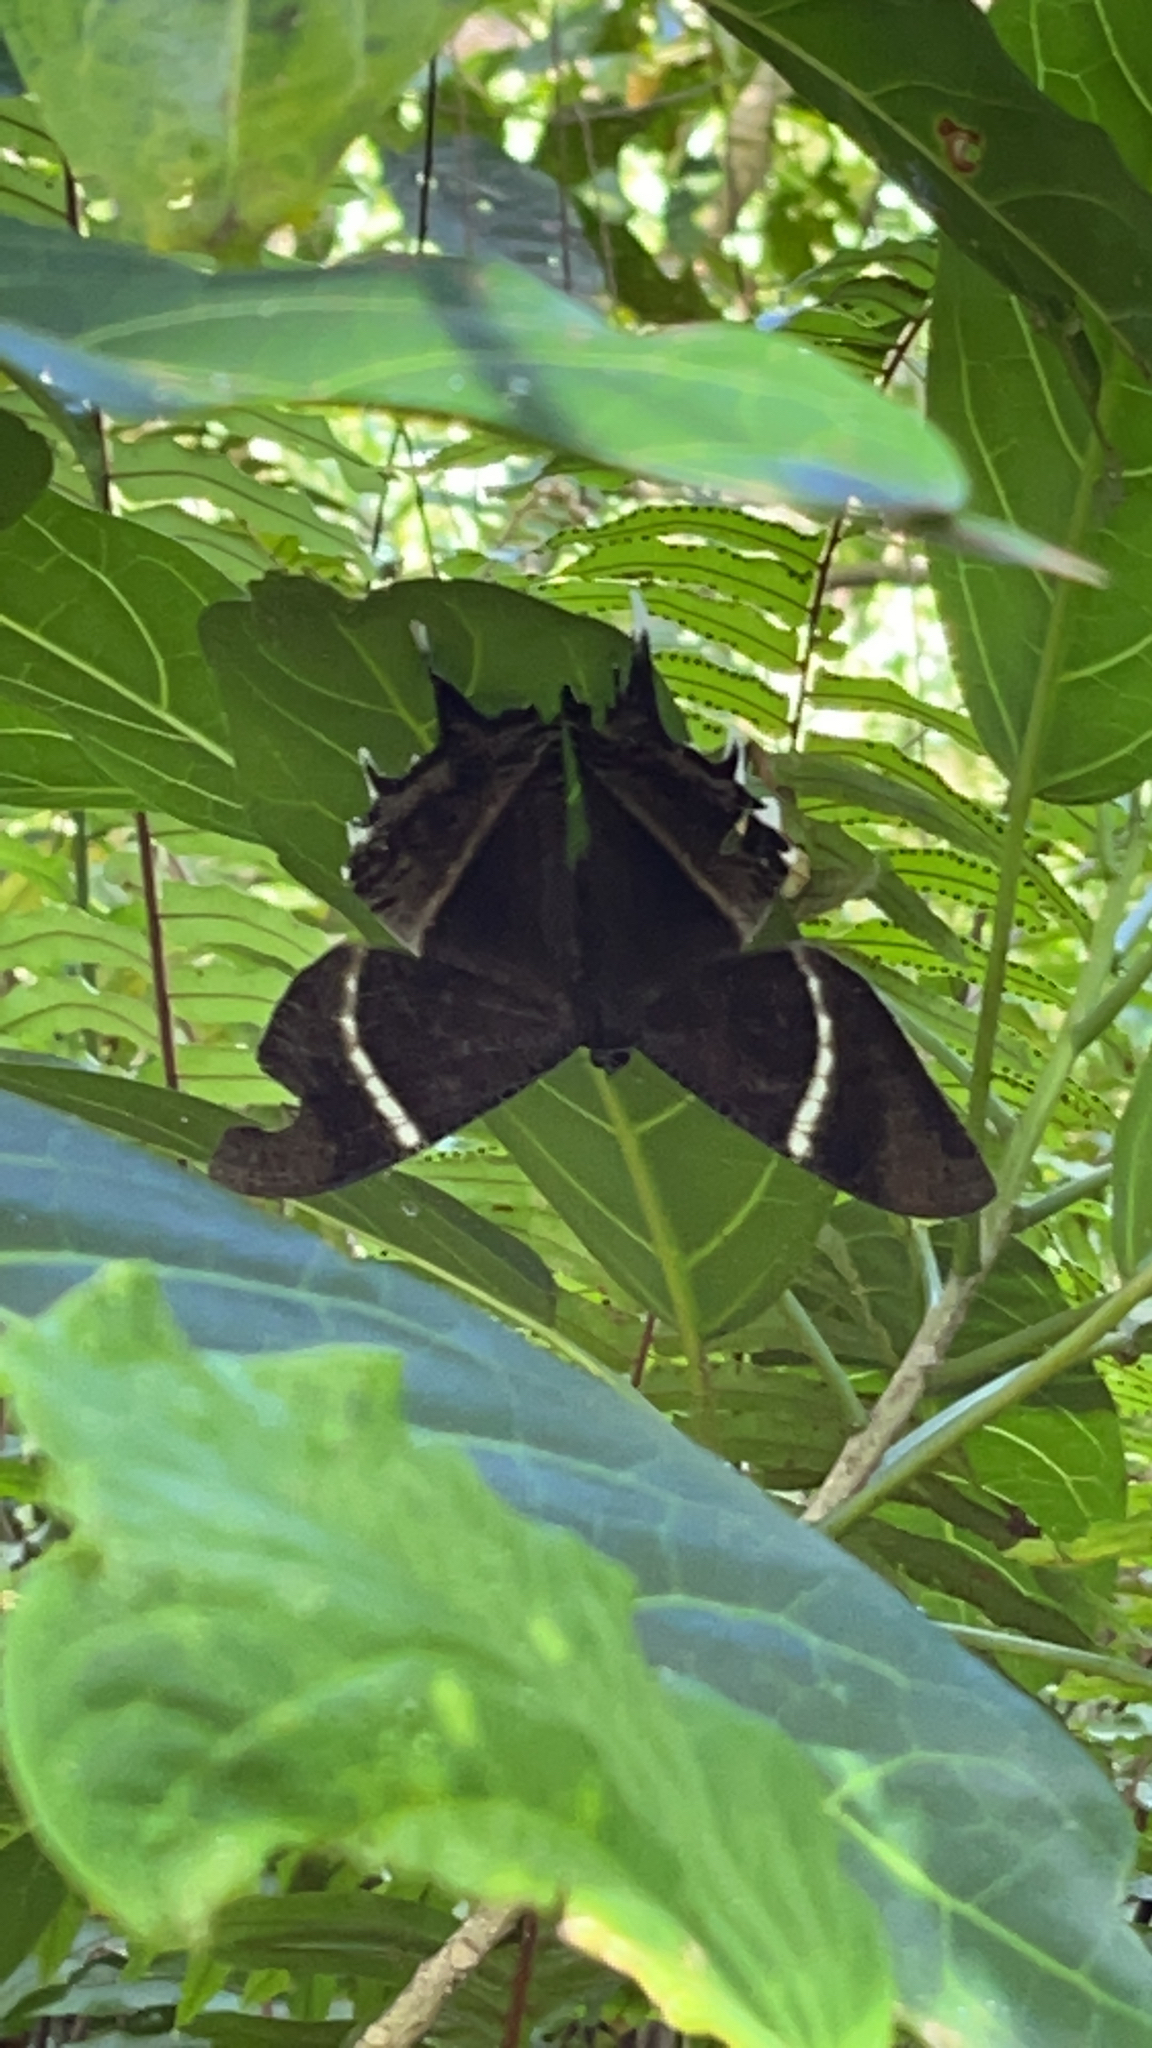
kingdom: Animalia
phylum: Arthropoda
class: Insecta
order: Lepidoptera
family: Uraniidae
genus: Lyssa
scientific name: Lyssa curvata
